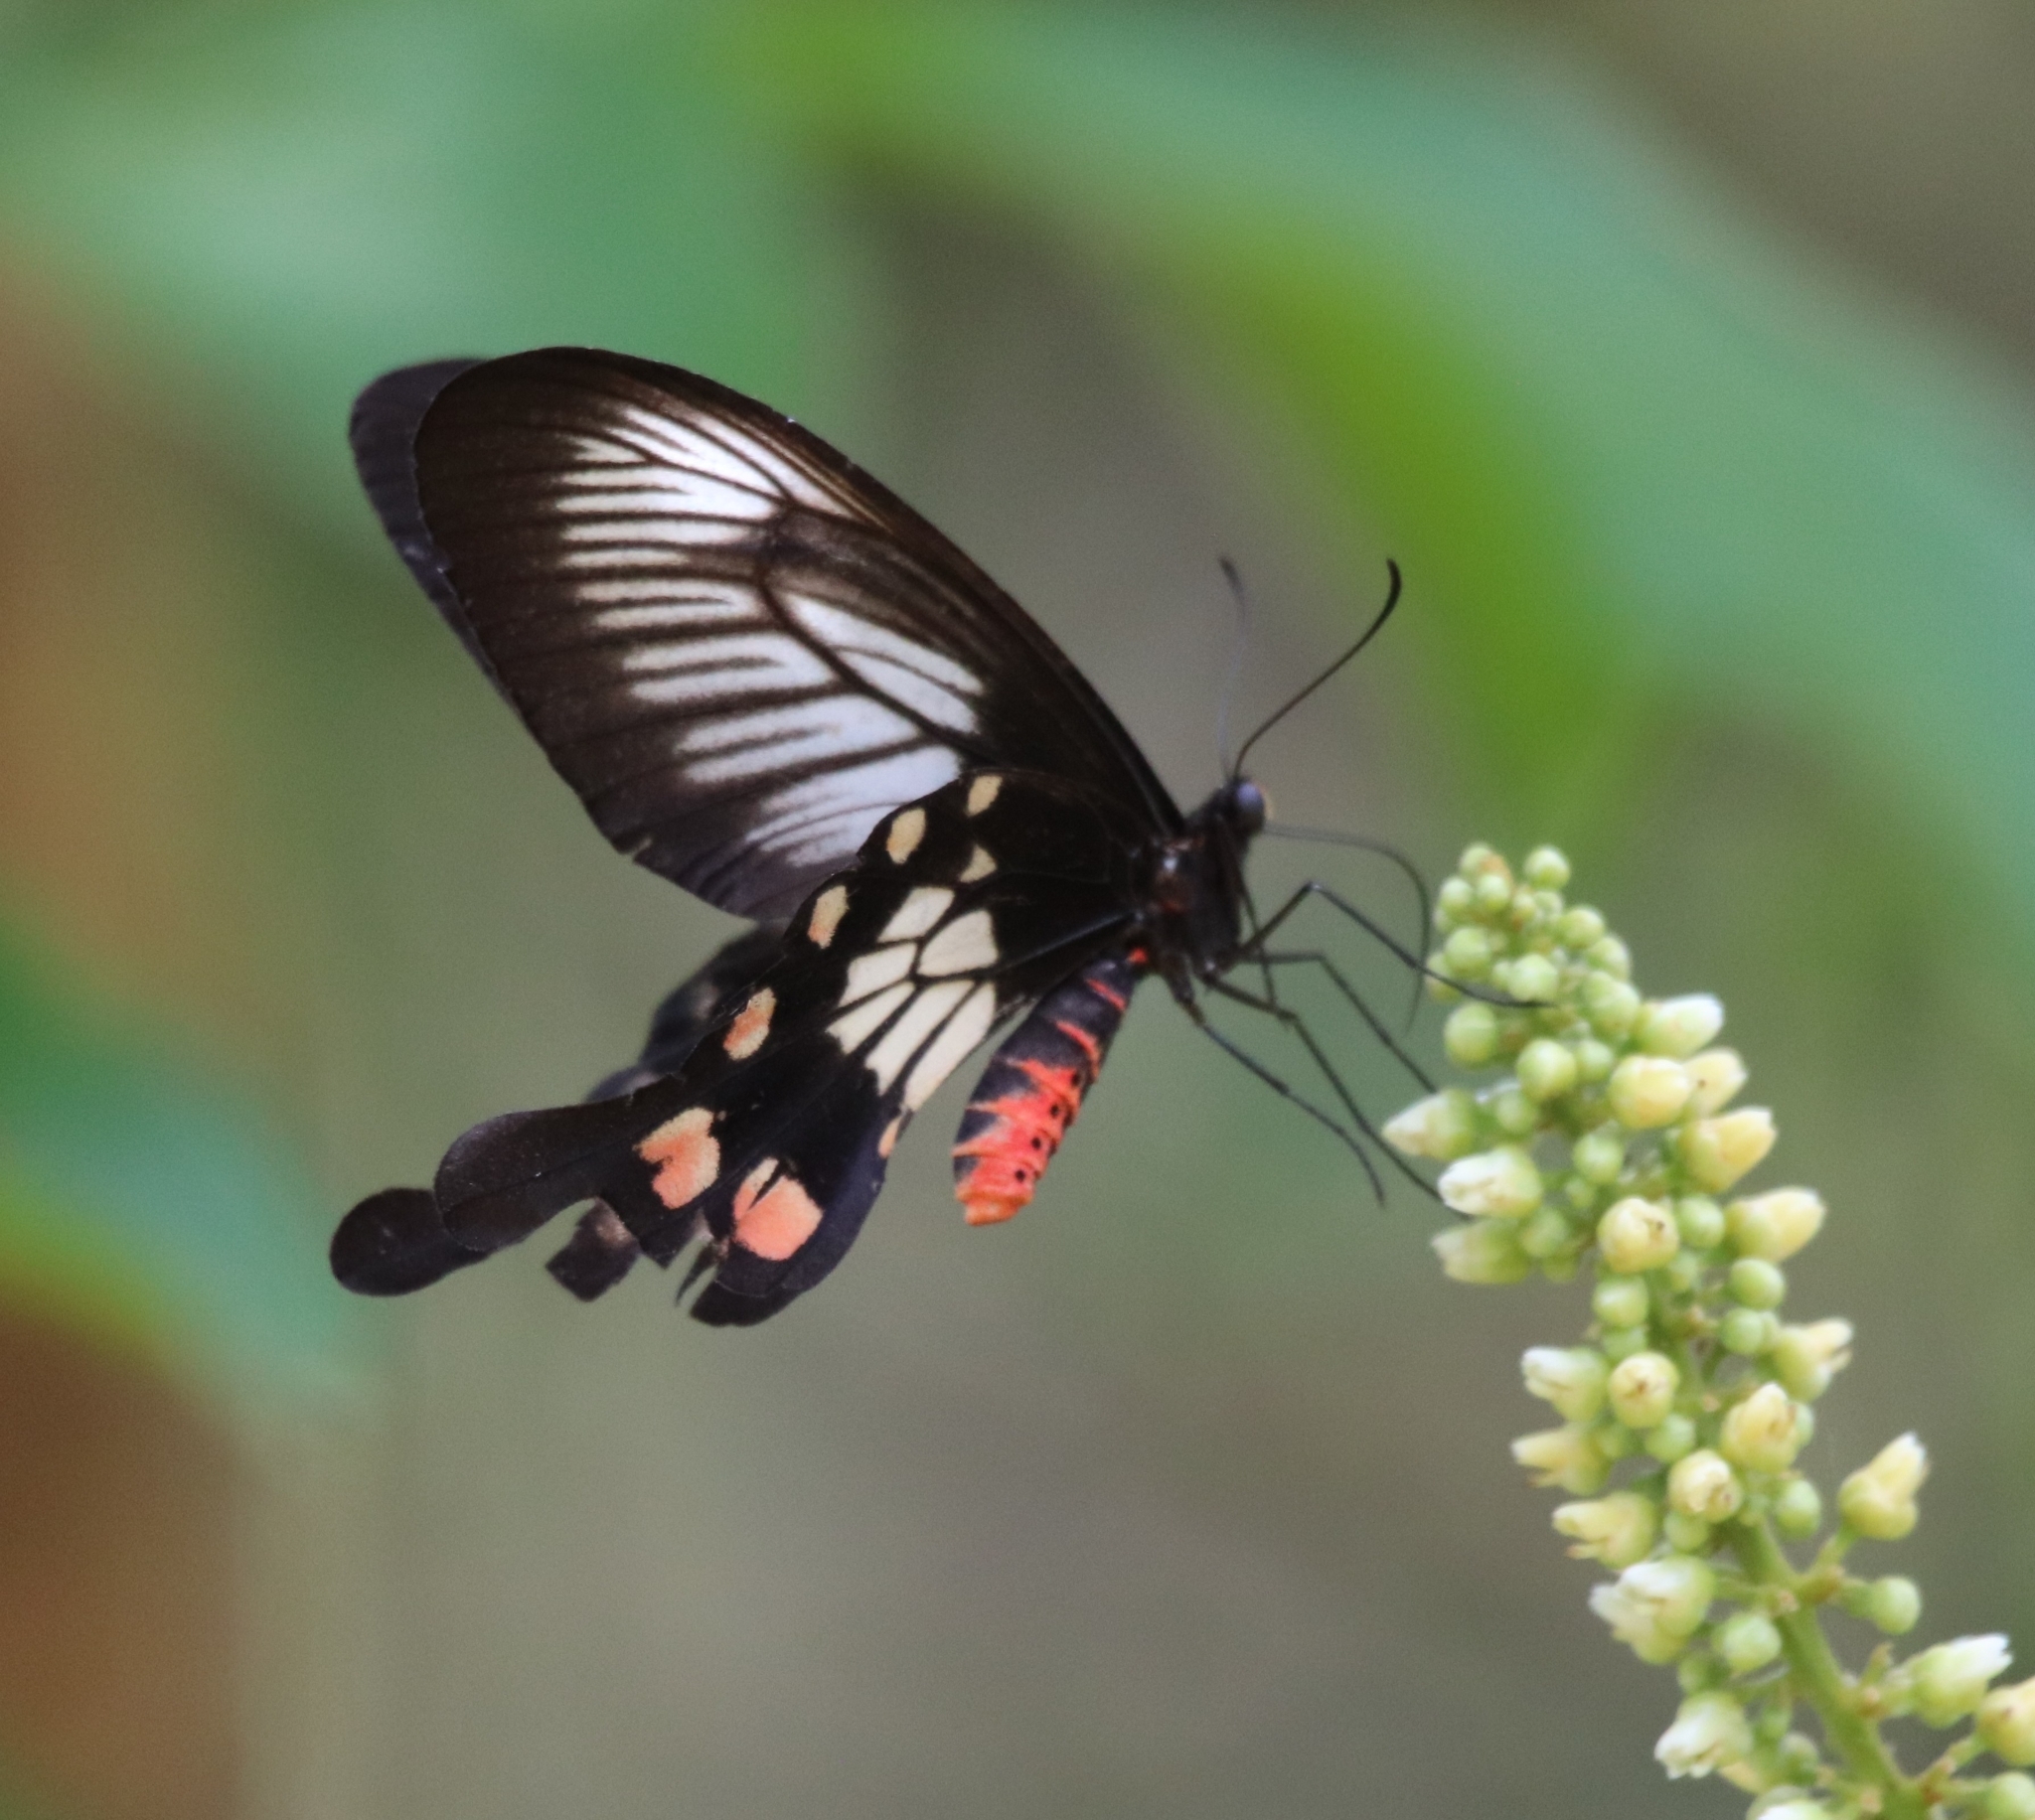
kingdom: Animalia
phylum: Arthropoda
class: Insecta
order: Lepidoptera
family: Papilionidae
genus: Pachliopta
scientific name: Pachliopta polyphontes
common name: Sulawesi rose
